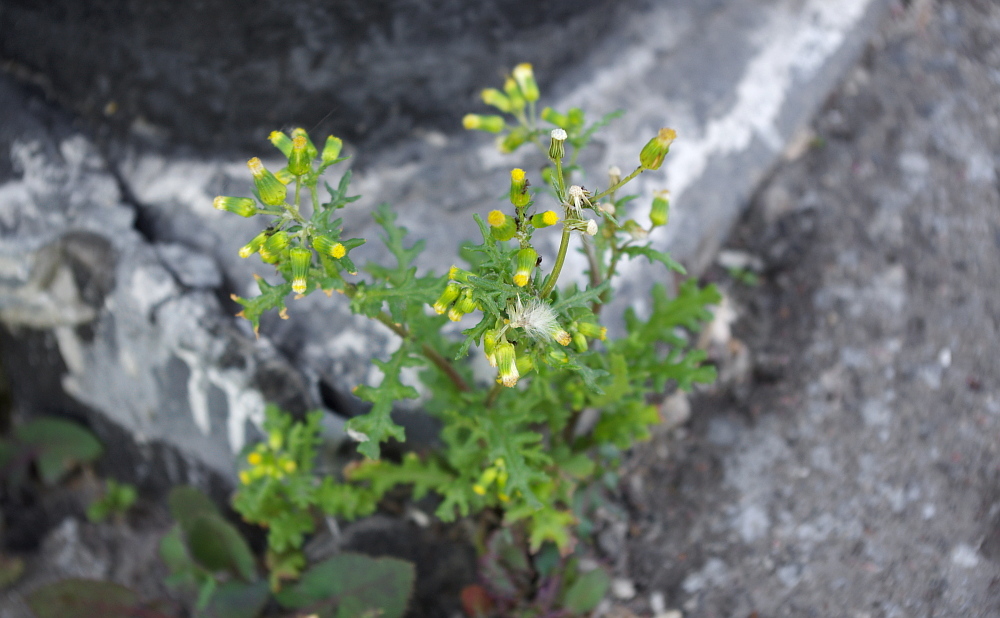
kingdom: Plantae
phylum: Tracheophyta
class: Magnoliopsida
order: Asterales
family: Asteraceae
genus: Senecio
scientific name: Senecio vulgaris
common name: Old-man-in-the-spring
